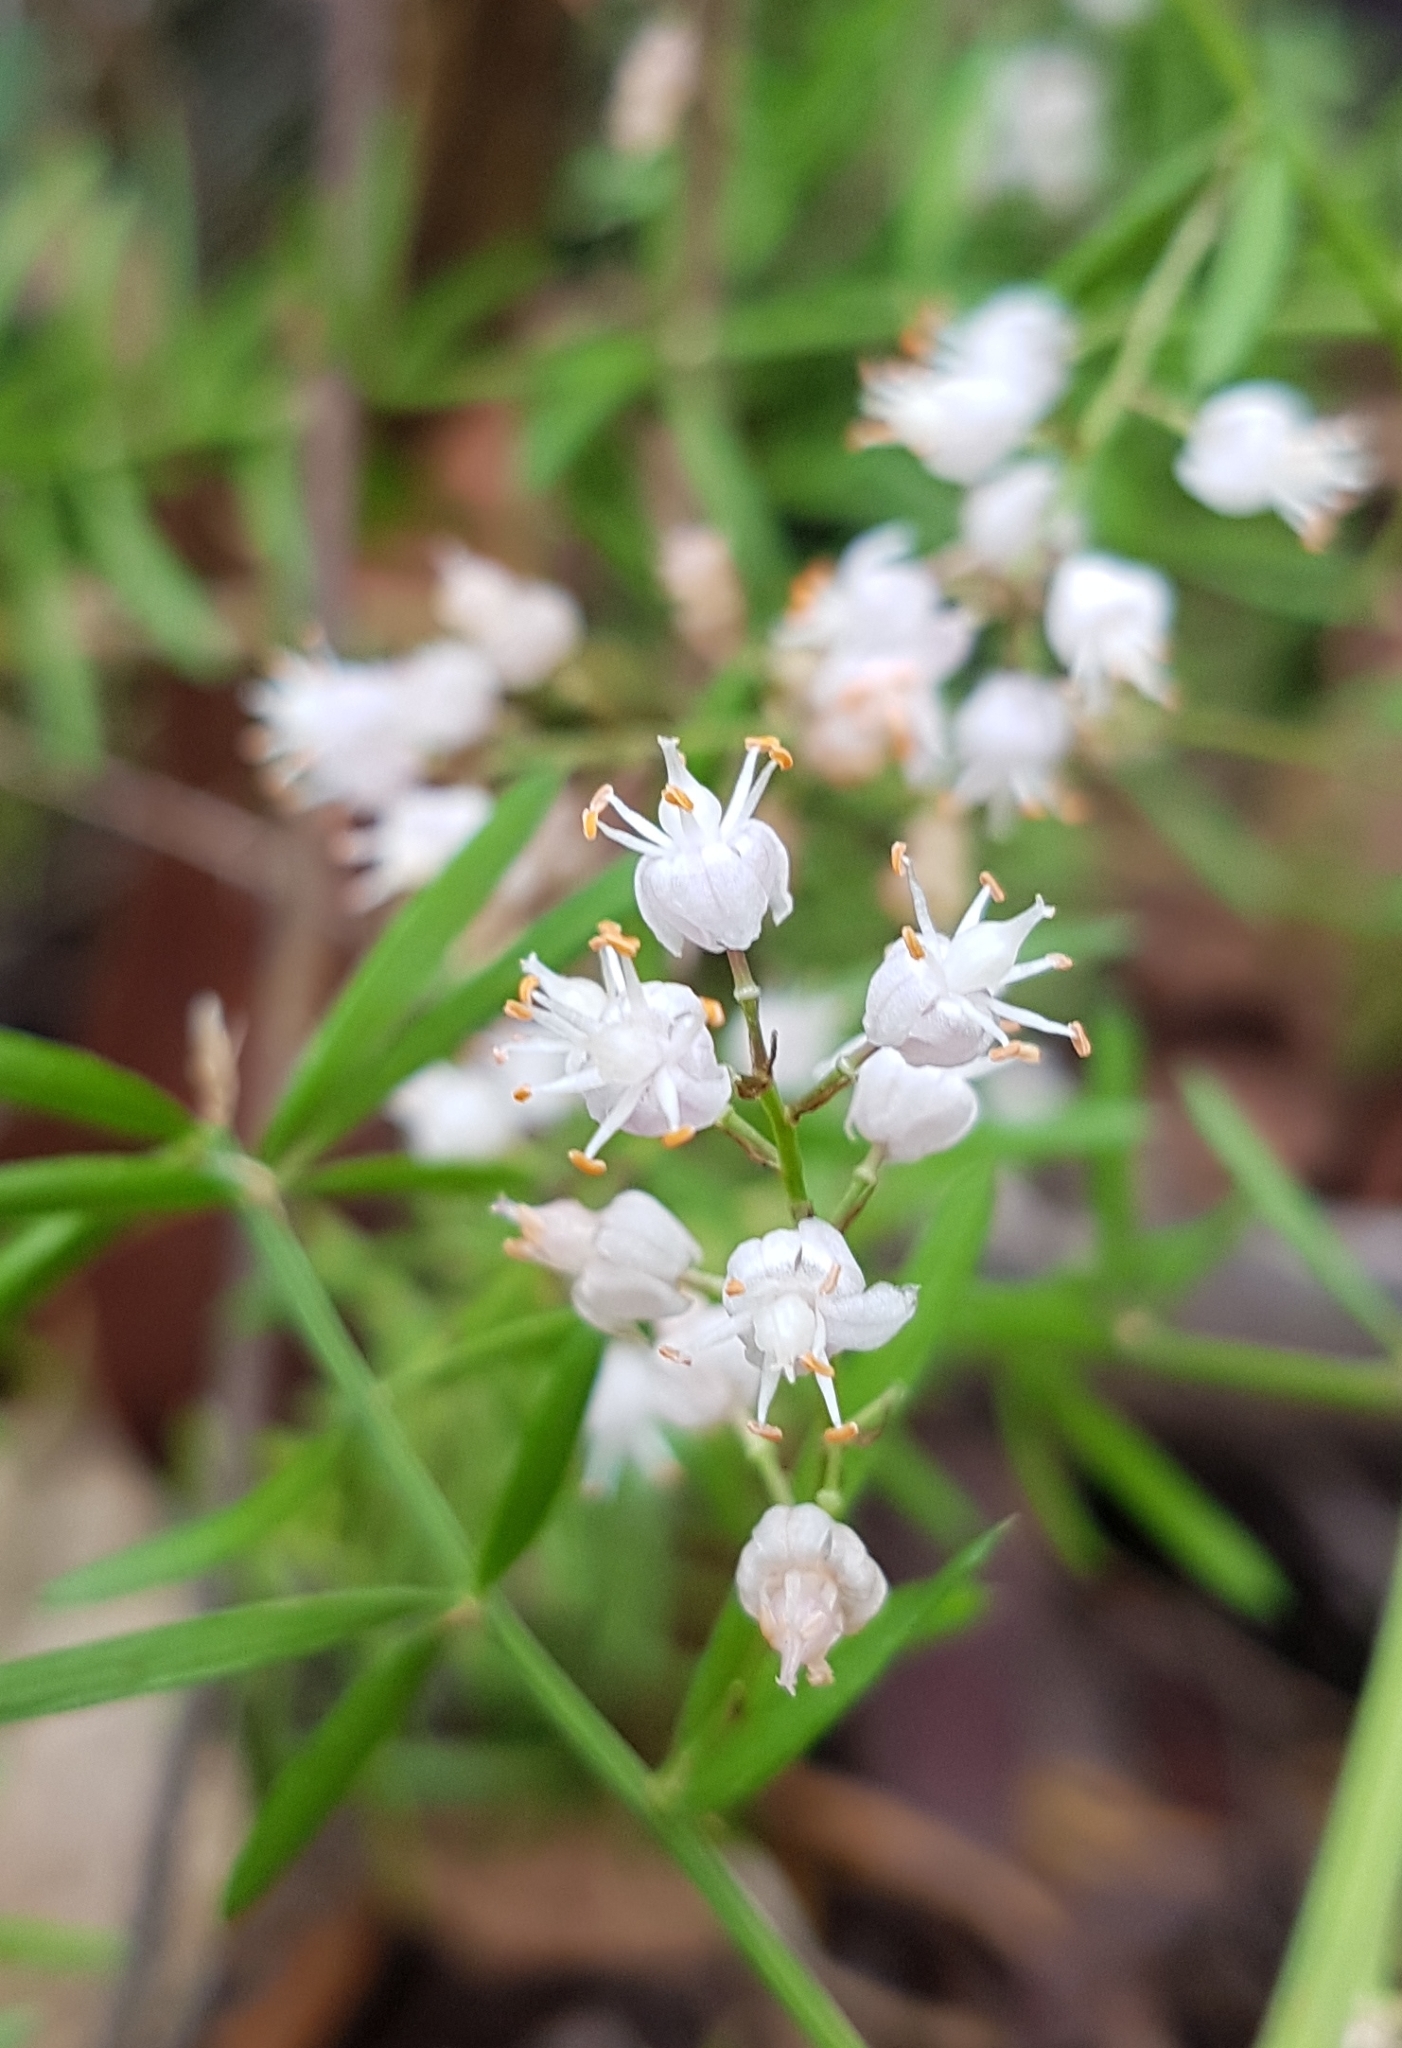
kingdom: Plantae
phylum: Tracheophyta
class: Liliopsida
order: Asparagales
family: Asparagaceae
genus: Asparagus
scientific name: Asparagus aethiopicus
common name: Sprenger's asparagus fern
